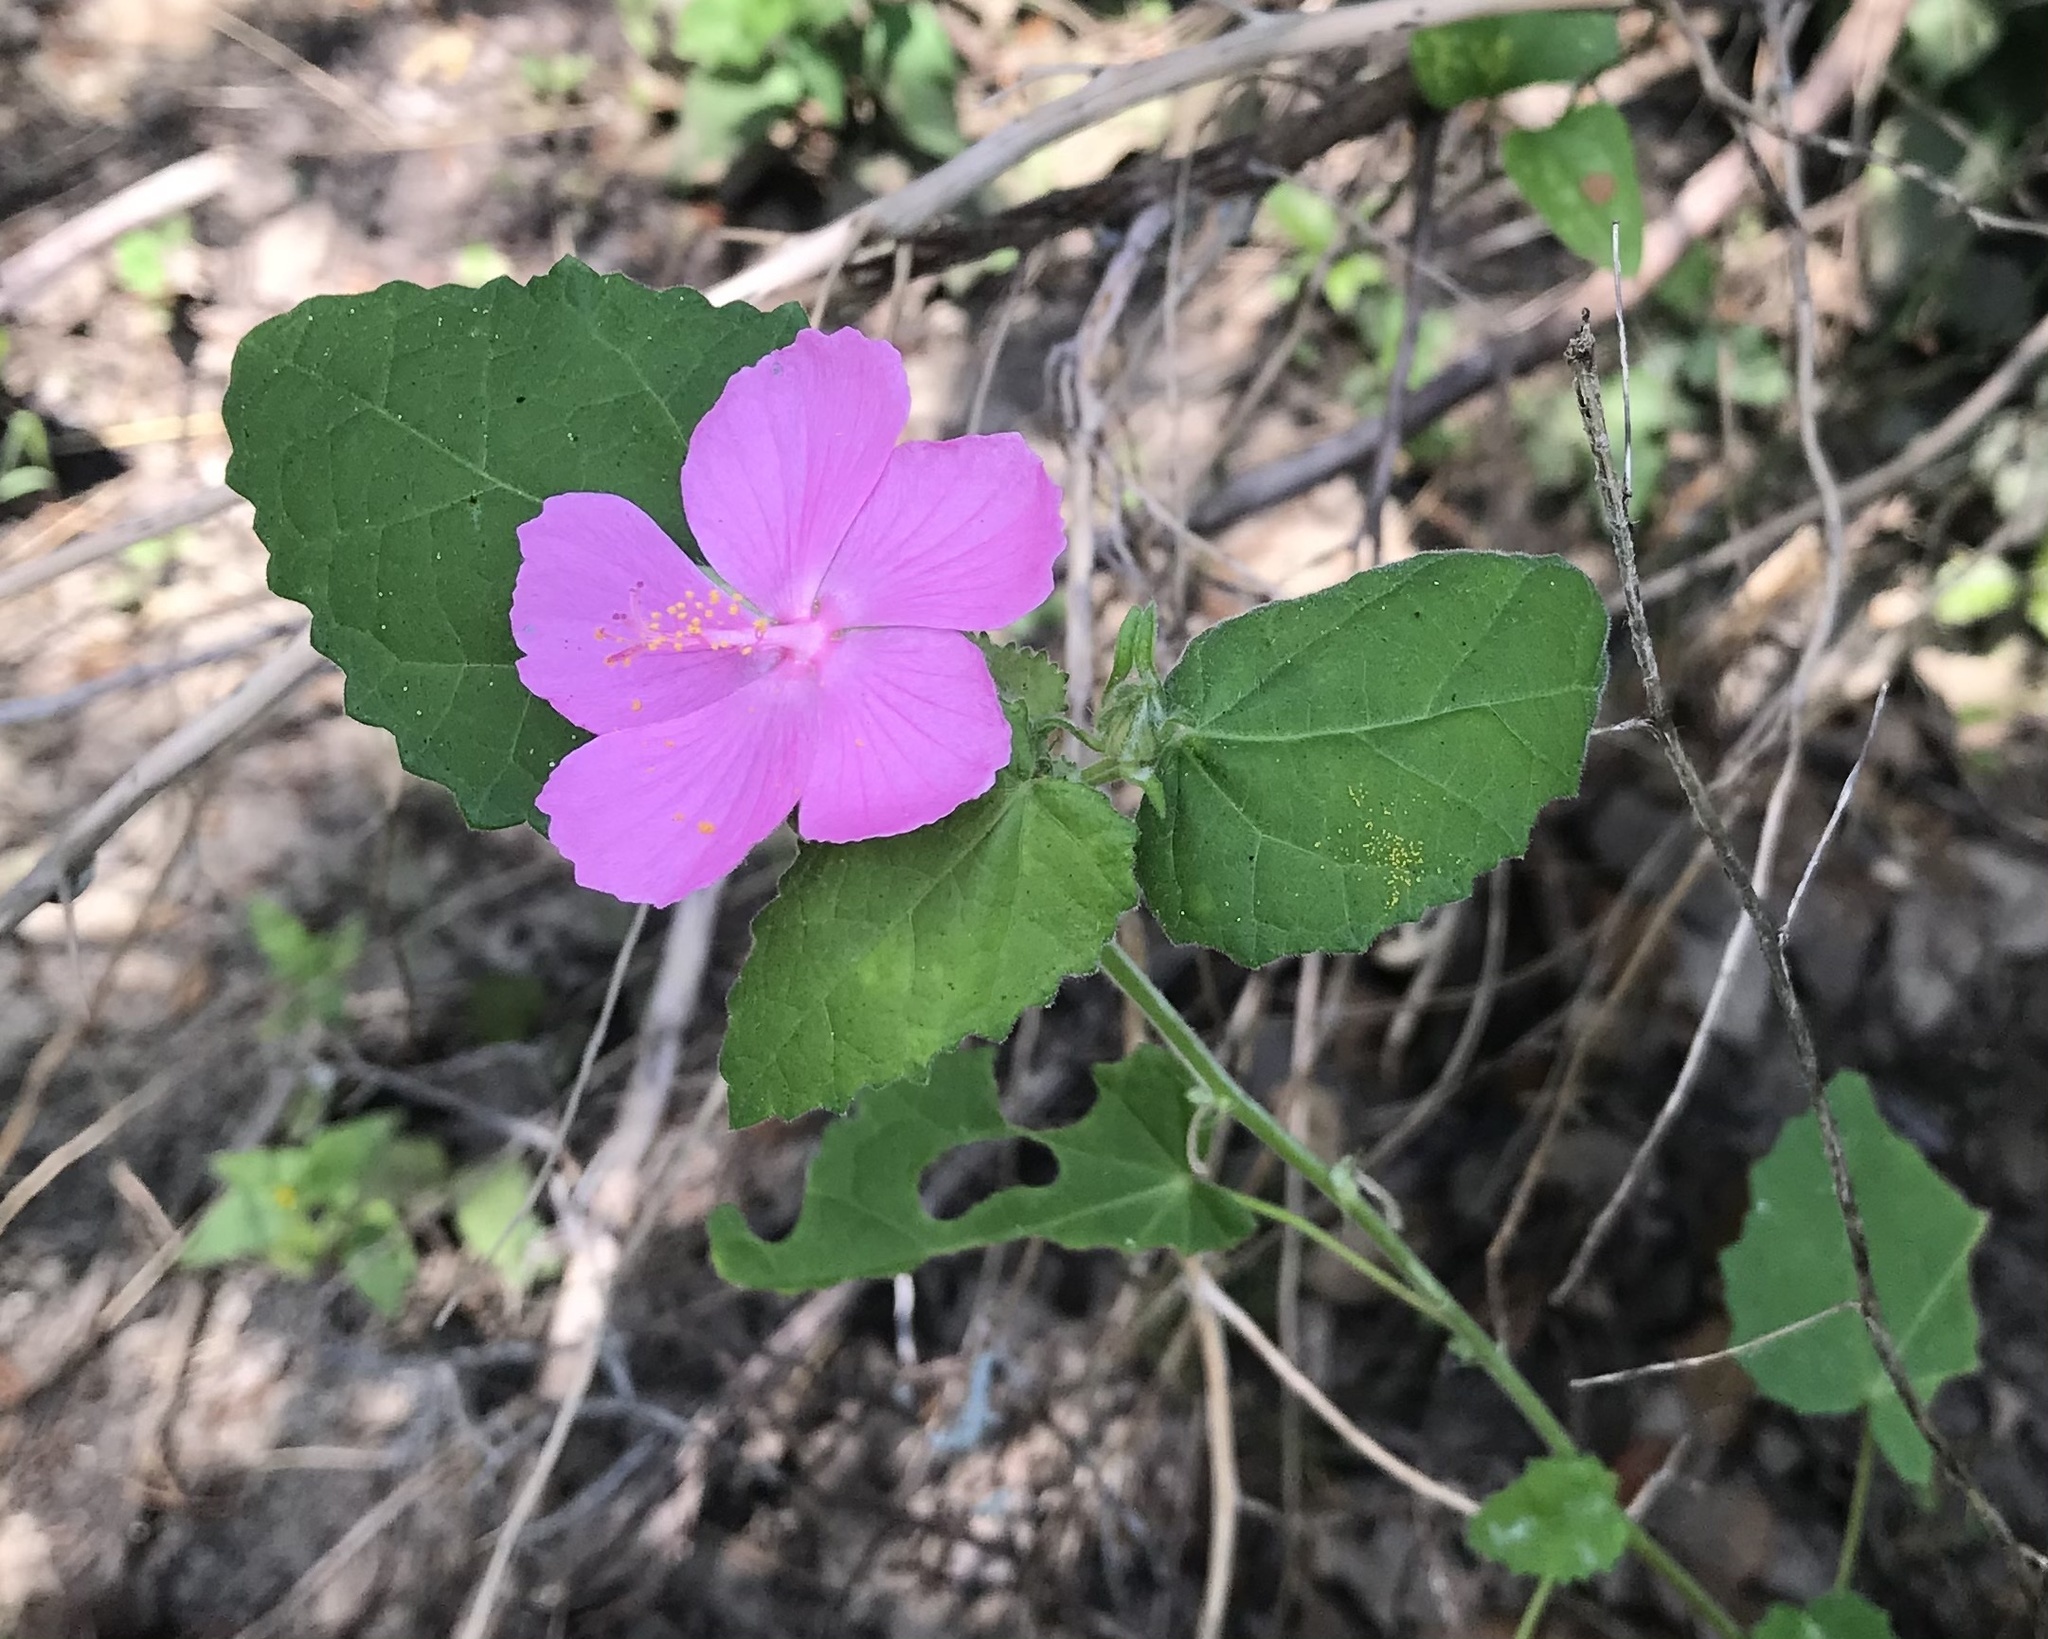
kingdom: Plantae
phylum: Tracheophyta
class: Magnoliopsida
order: Malvales
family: Malvaceae
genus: Pavonia
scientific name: Pavonia lasiopetala
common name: Texas swamp-mallow
